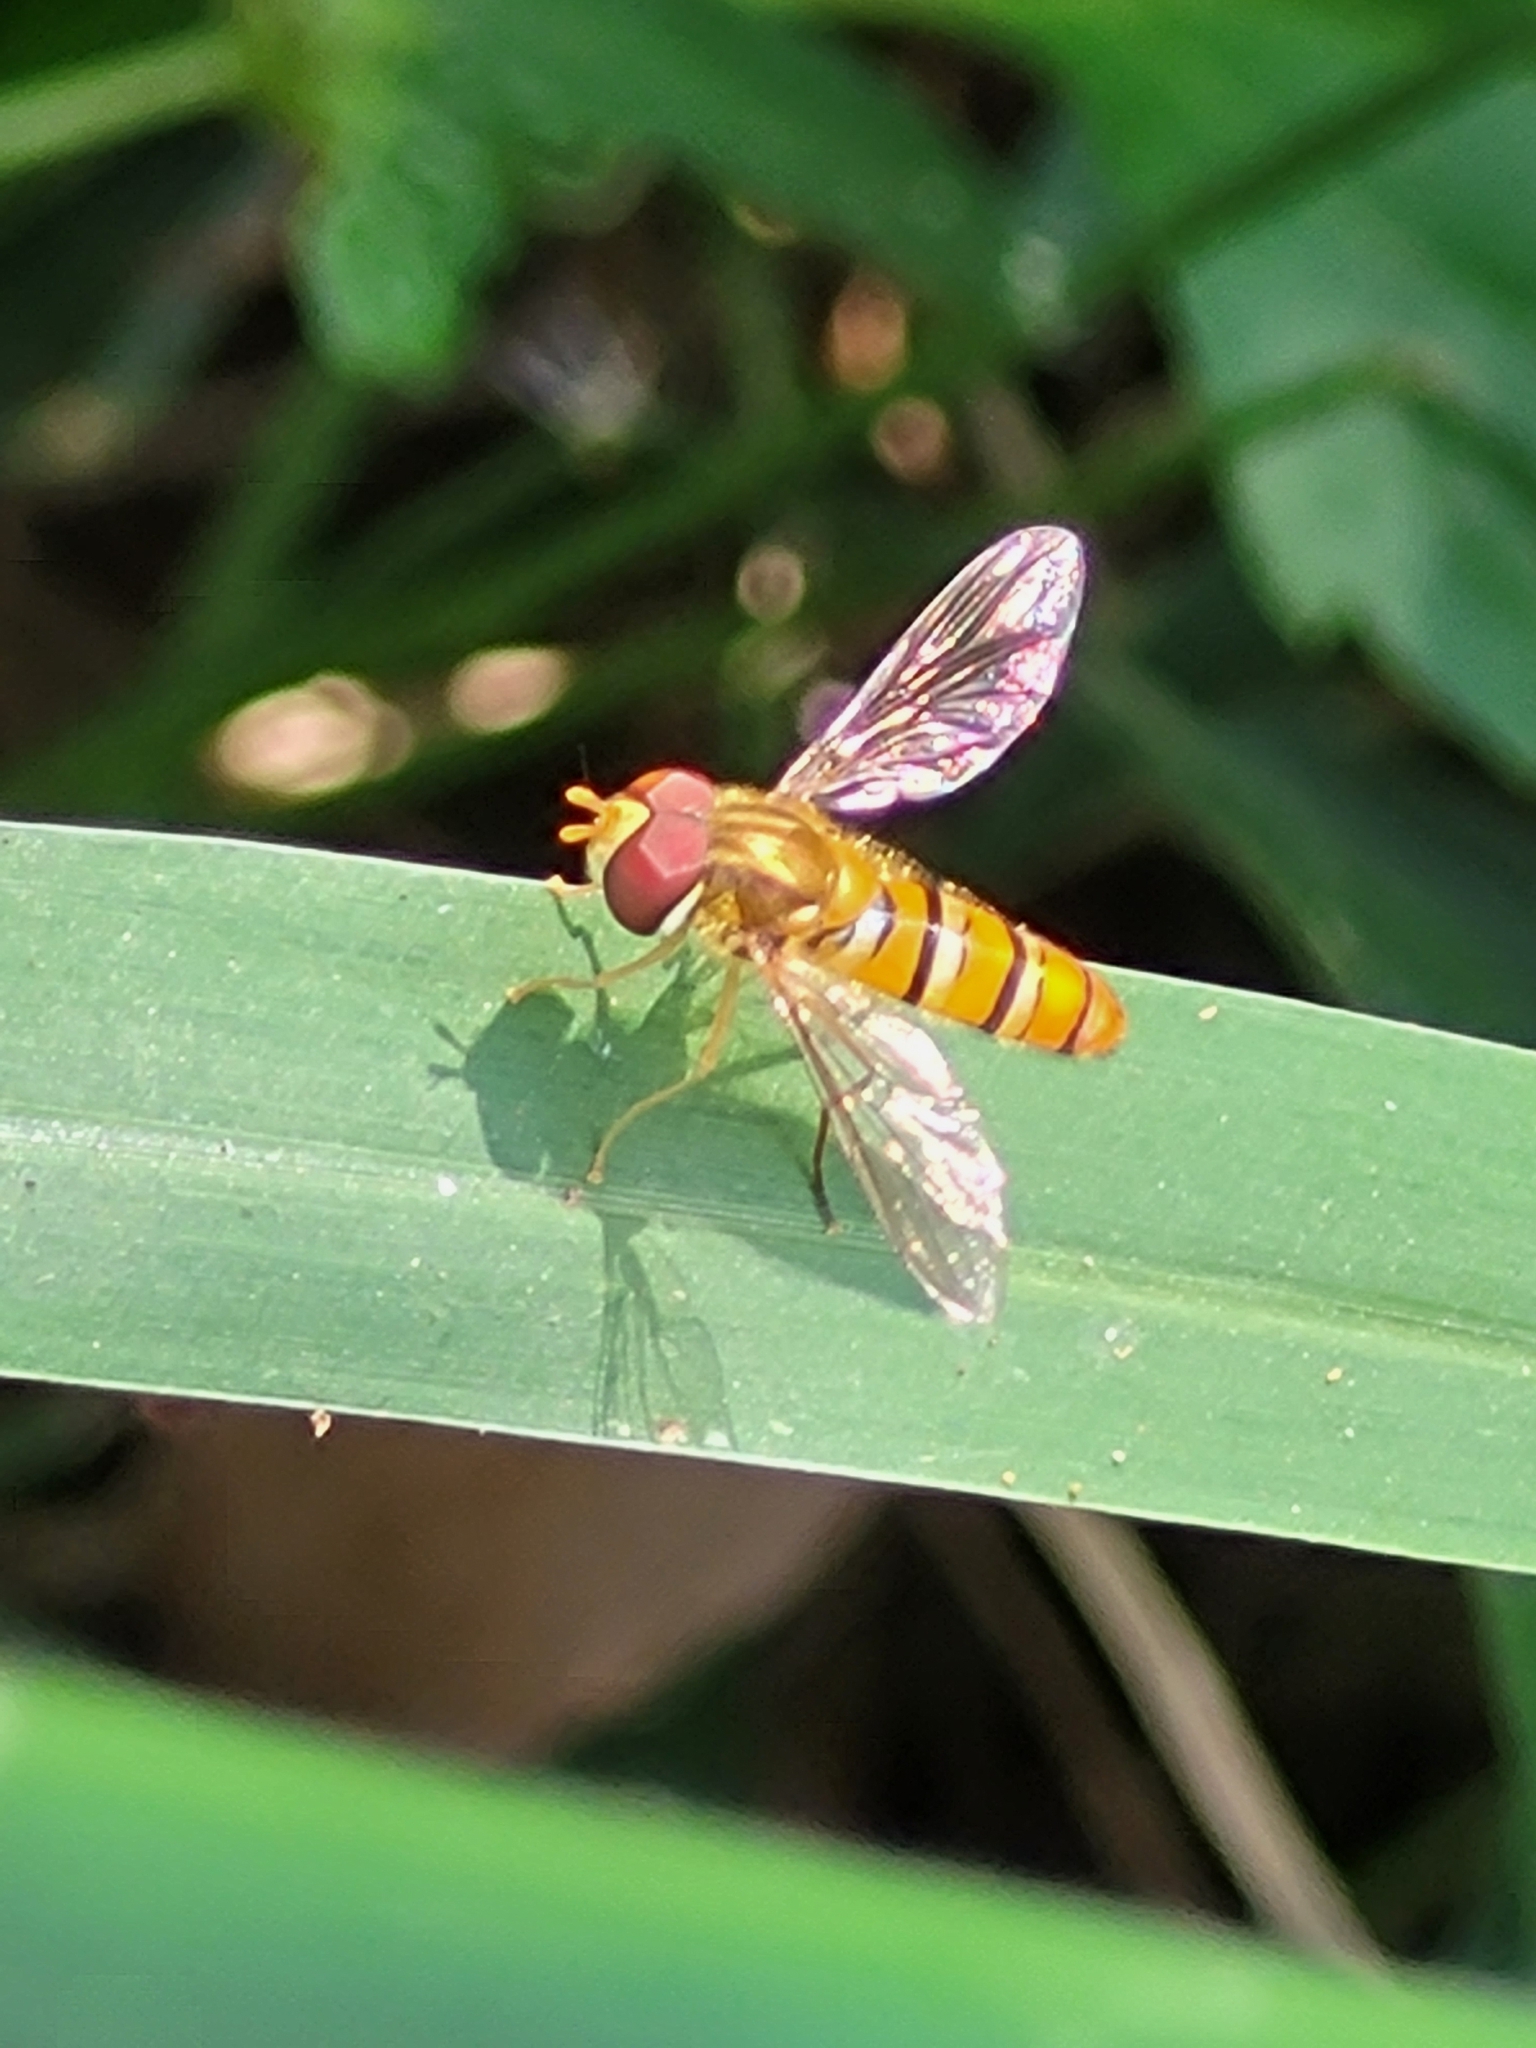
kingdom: Animalia
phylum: Arthropoda
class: Insecta
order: Diptera
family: Syrphidae
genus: Episyrphus
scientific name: Episyrphus viridaureus
